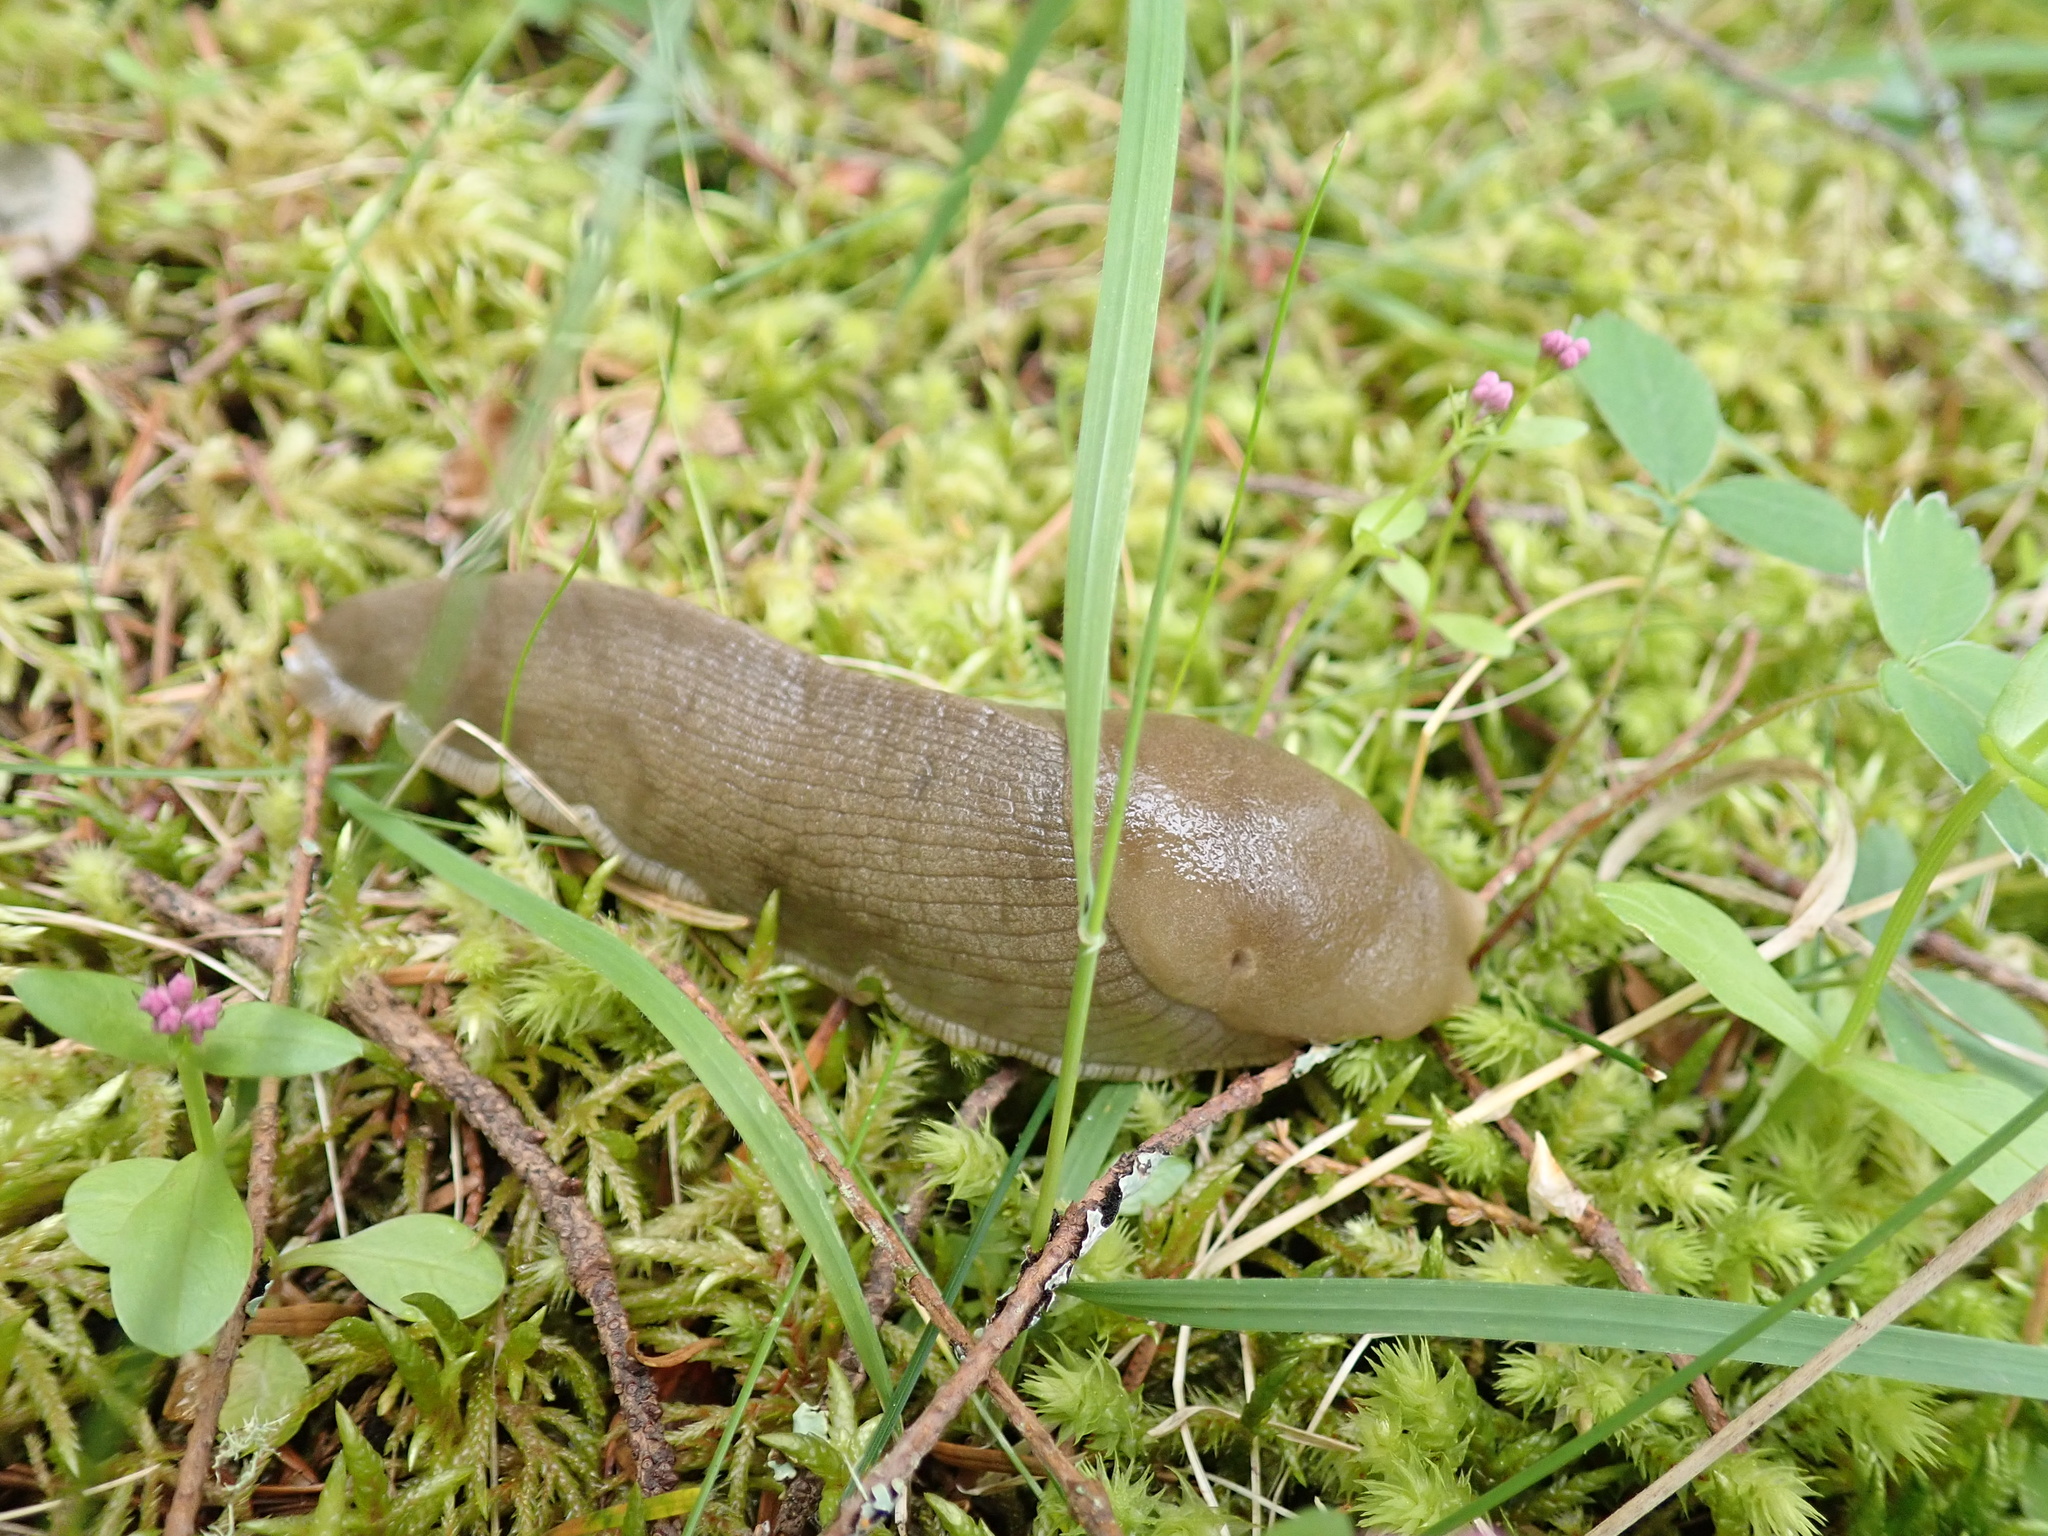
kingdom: Animalia
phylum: Mollusca
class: Gastropoda
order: Stylommatophora
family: Ariolimacidae
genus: Ariolimax
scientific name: Ariolimax columbianus
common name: Pacific banana slug
